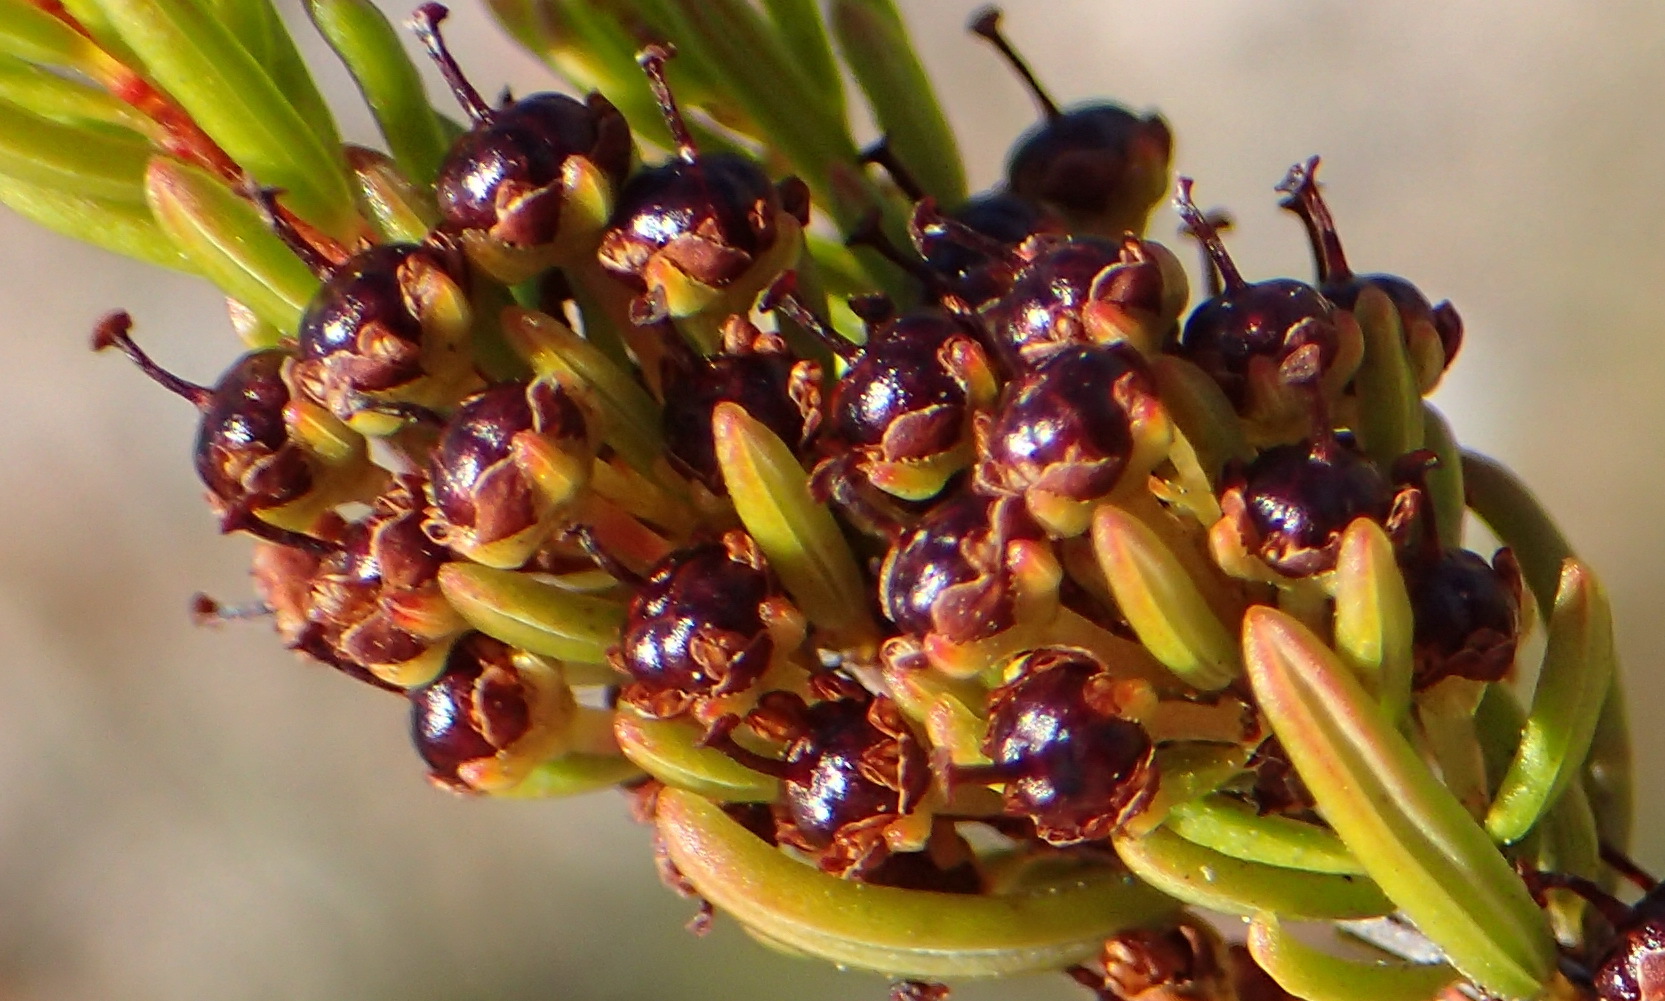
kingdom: Plantae
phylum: Tracheophyta
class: Magnoliopsida
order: Ericales
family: Ericaceae
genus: Erica
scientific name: Erica coarctata
